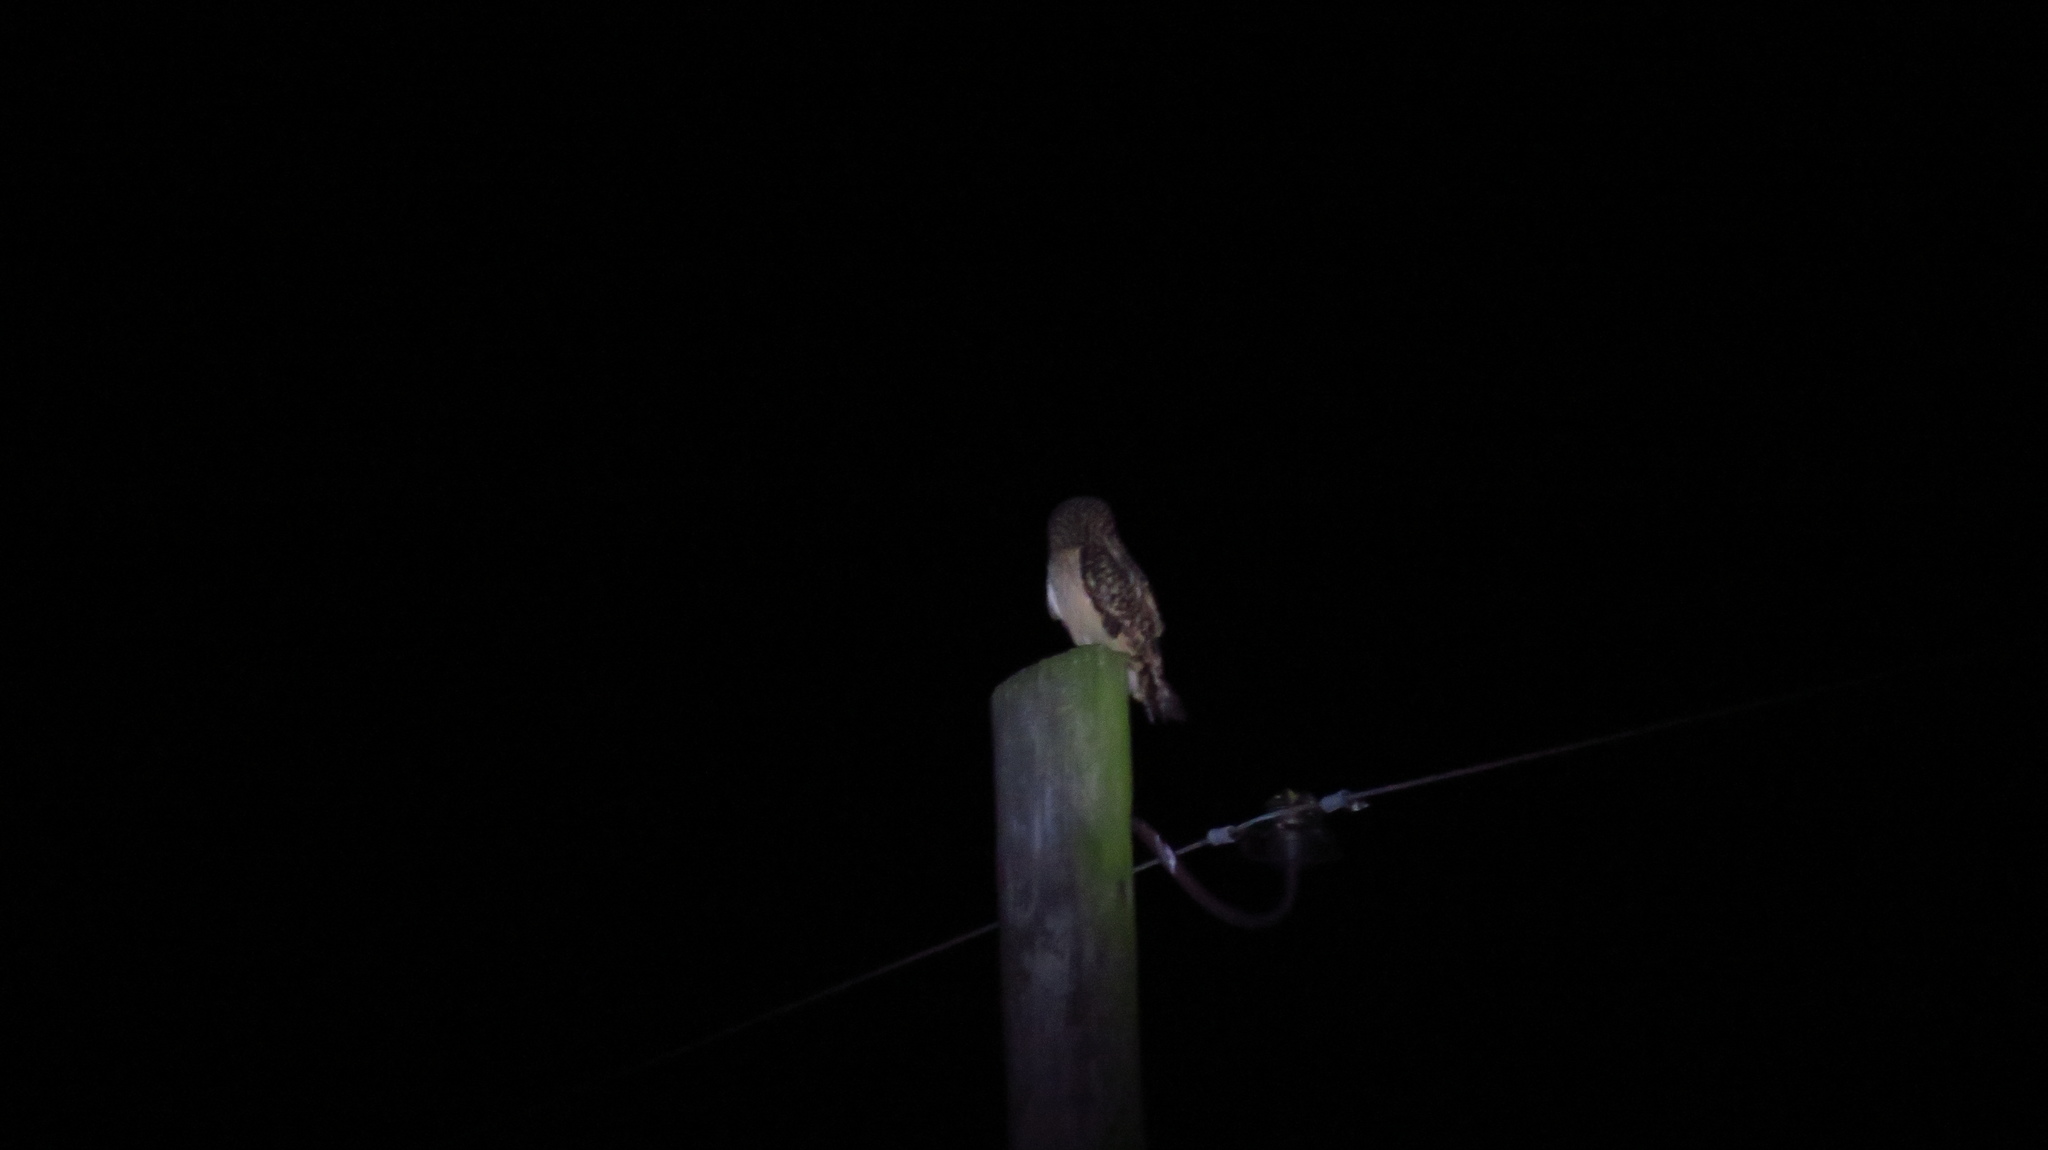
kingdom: Animalia
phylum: Chordata
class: Aves
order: Strigiformes
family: Strigidae
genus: Asio
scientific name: Asio flammeus
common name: Short-eared owl
